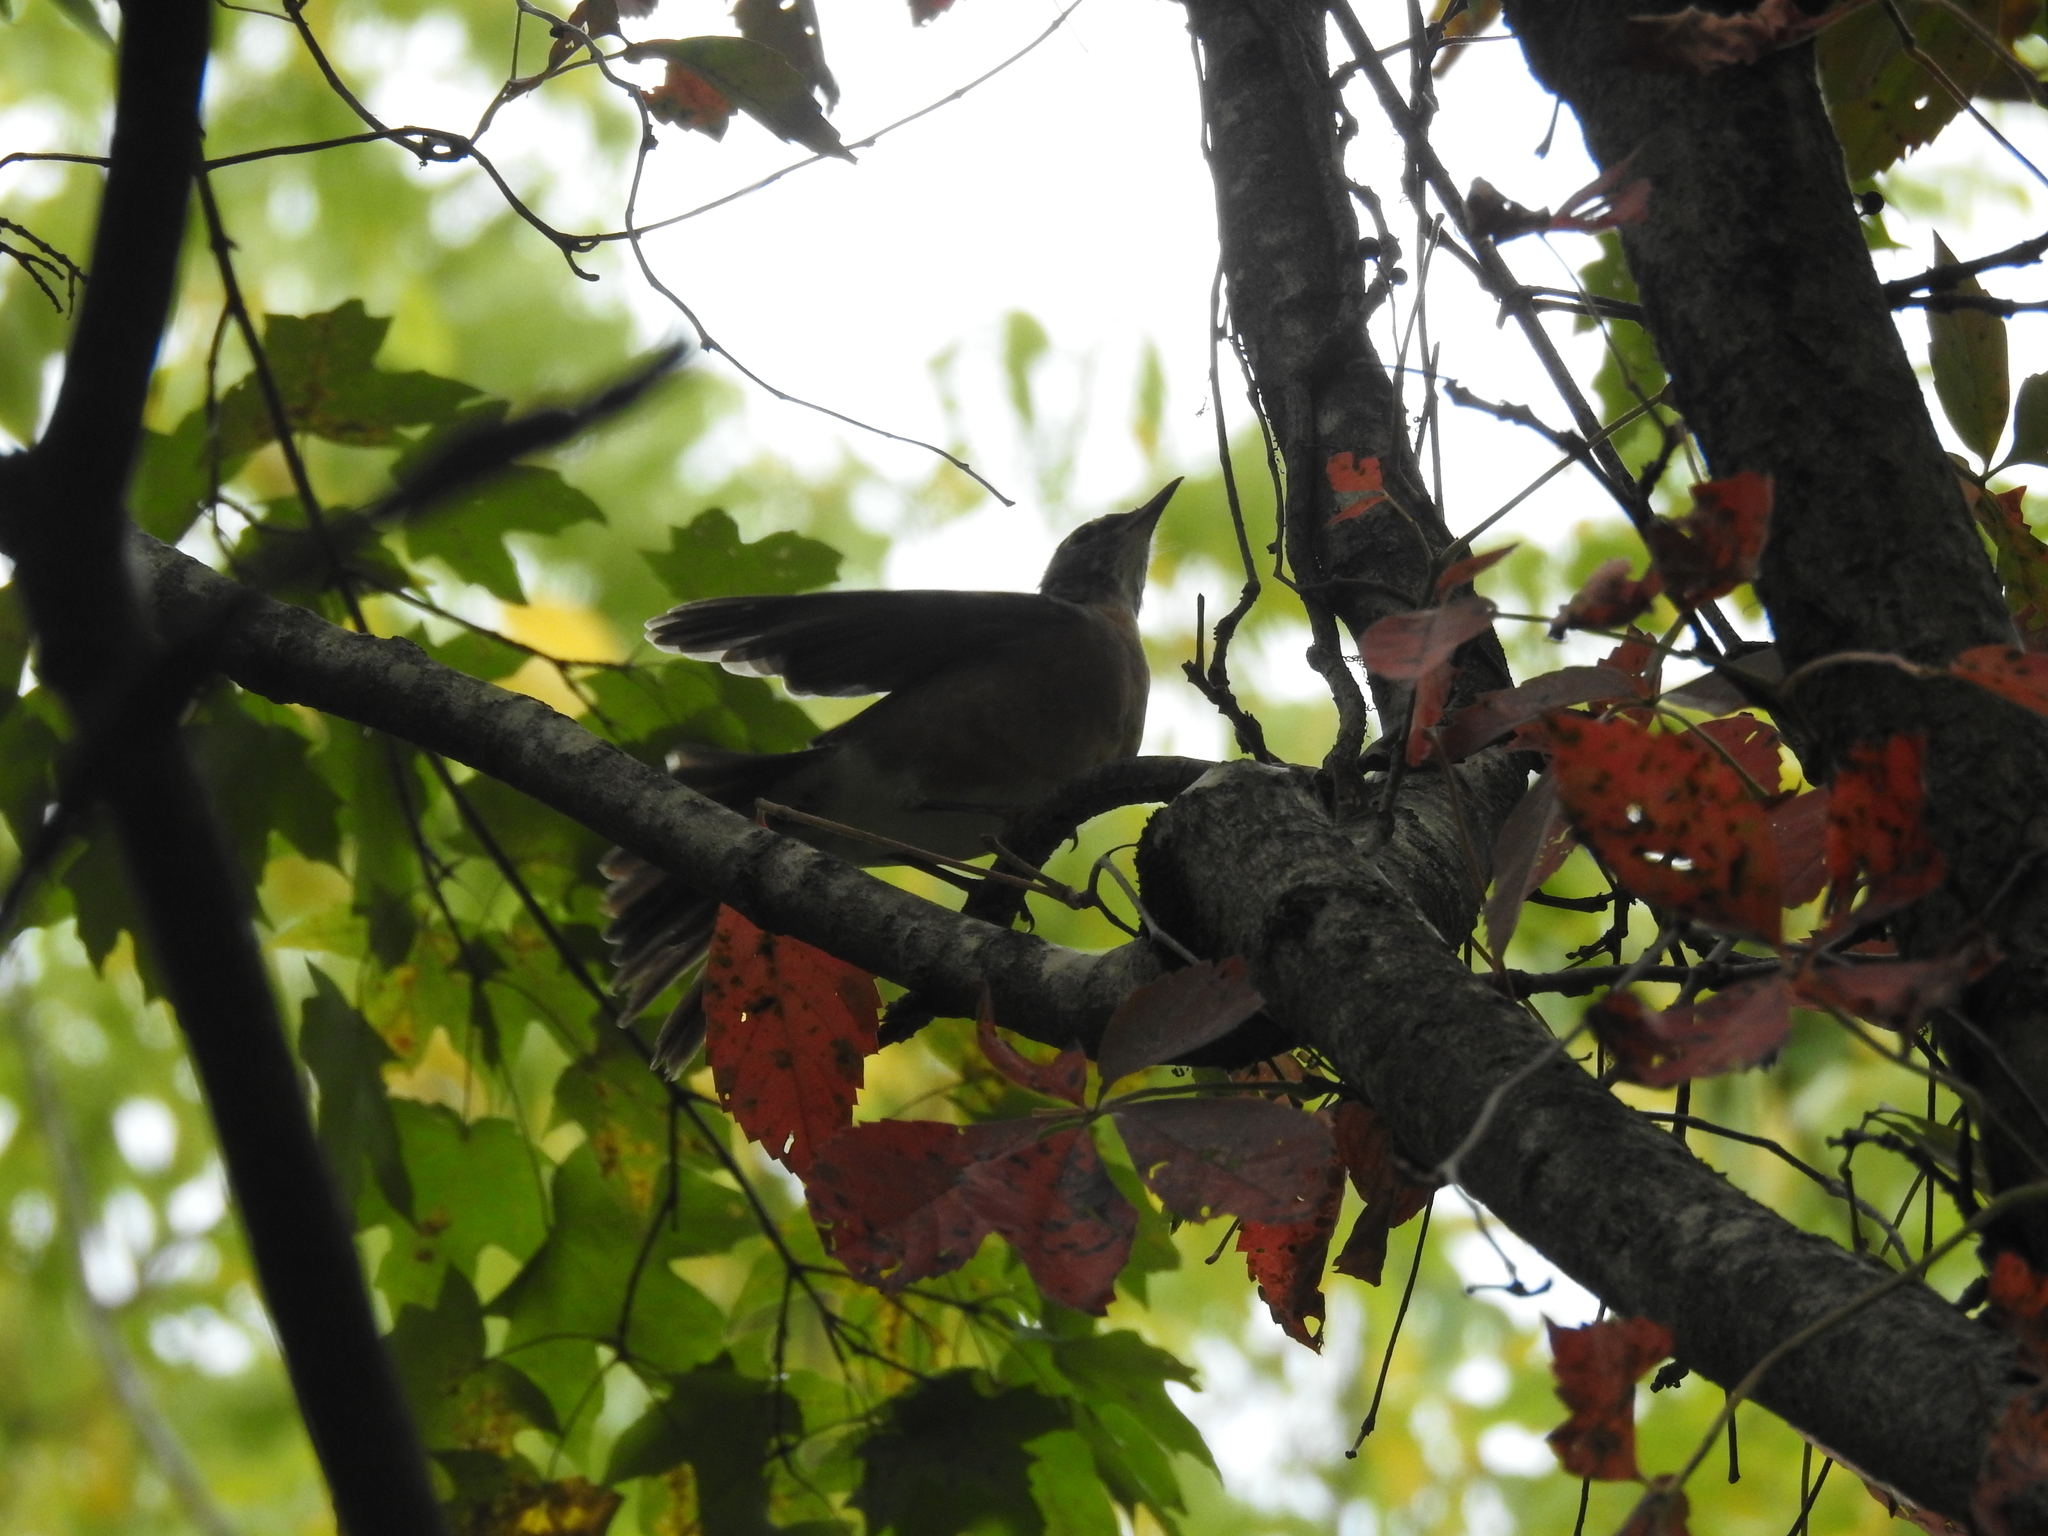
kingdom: Animalia
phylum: Chordata
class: Aves
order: Passeriformes
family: Turdidae
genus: Turdus
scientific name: Turdus migratorius
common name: American robin
